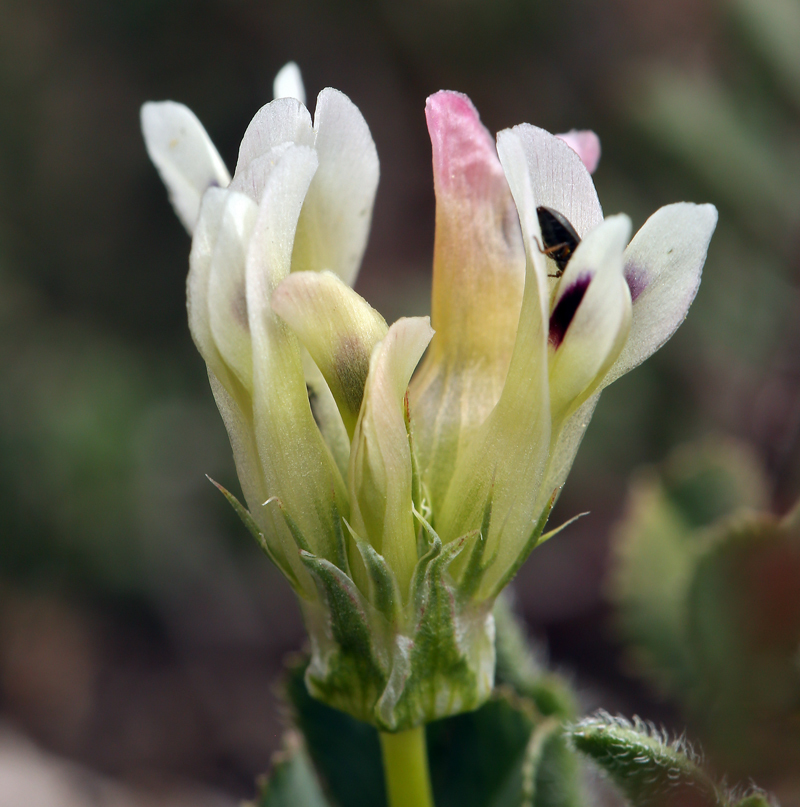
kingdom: Plantae
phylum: Tracheophyta
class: Magnoliopsida
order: Fabales
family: Fabaceae
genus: Trifolium
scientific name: Trifolium fucatum
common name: Puff clover
